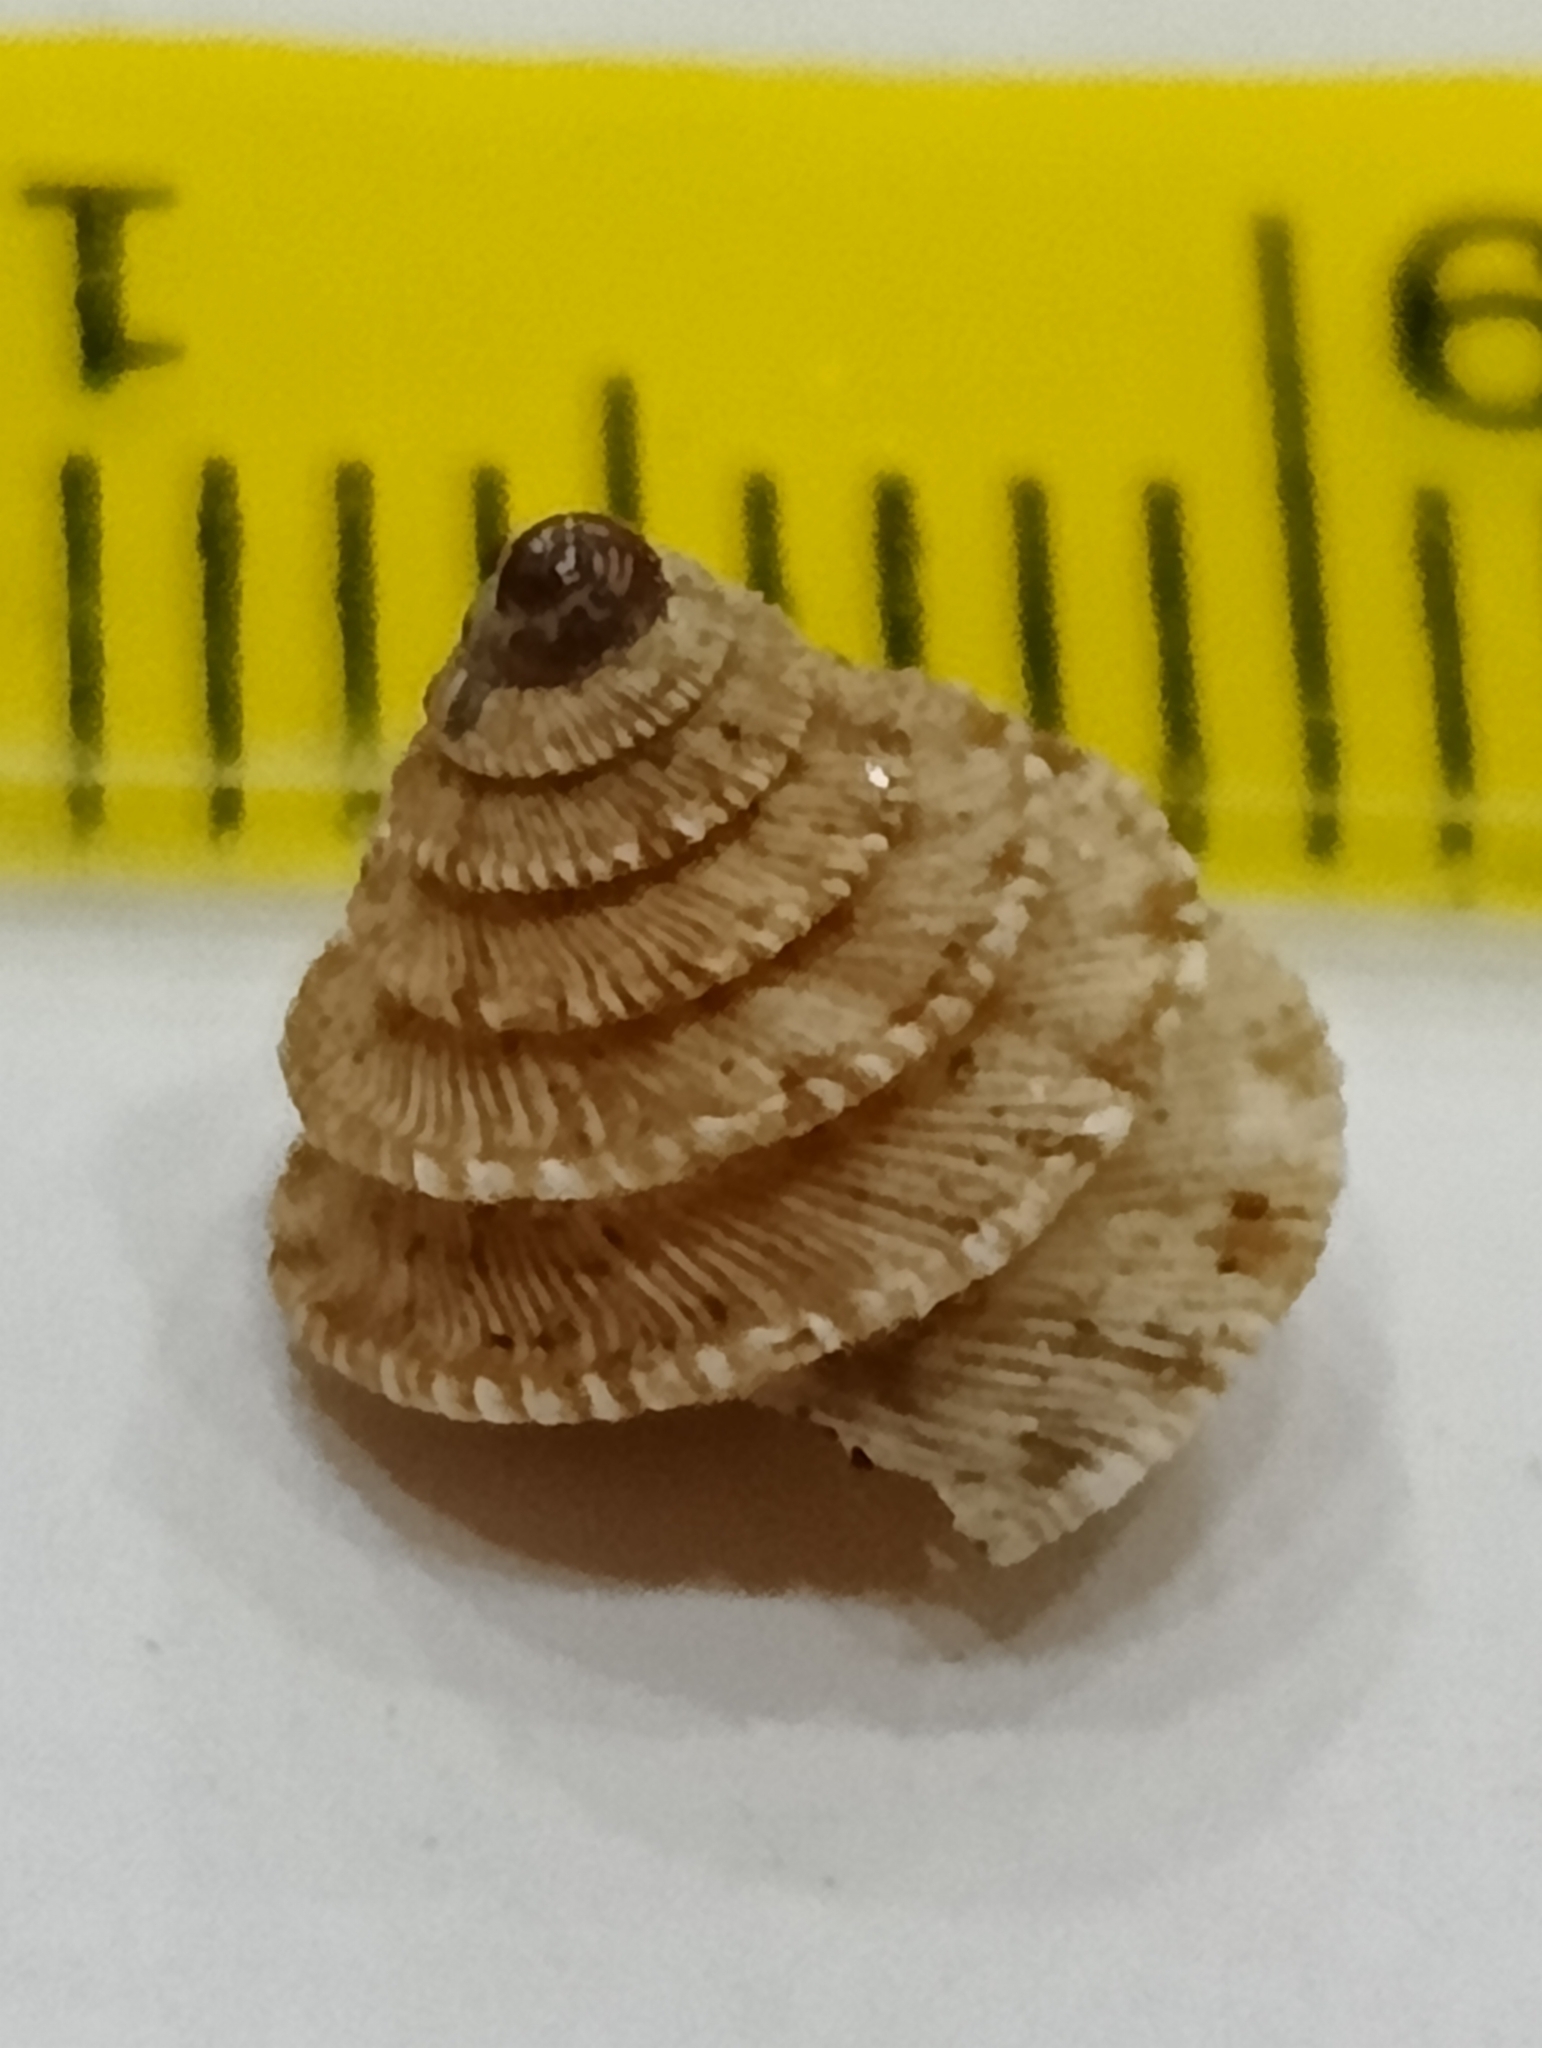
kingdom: Animalia
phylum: Mollusca
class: Gastropoda
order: Stylommatophora
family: Geomitridae
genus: Trochoidea
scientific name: Trochoidea caroni
